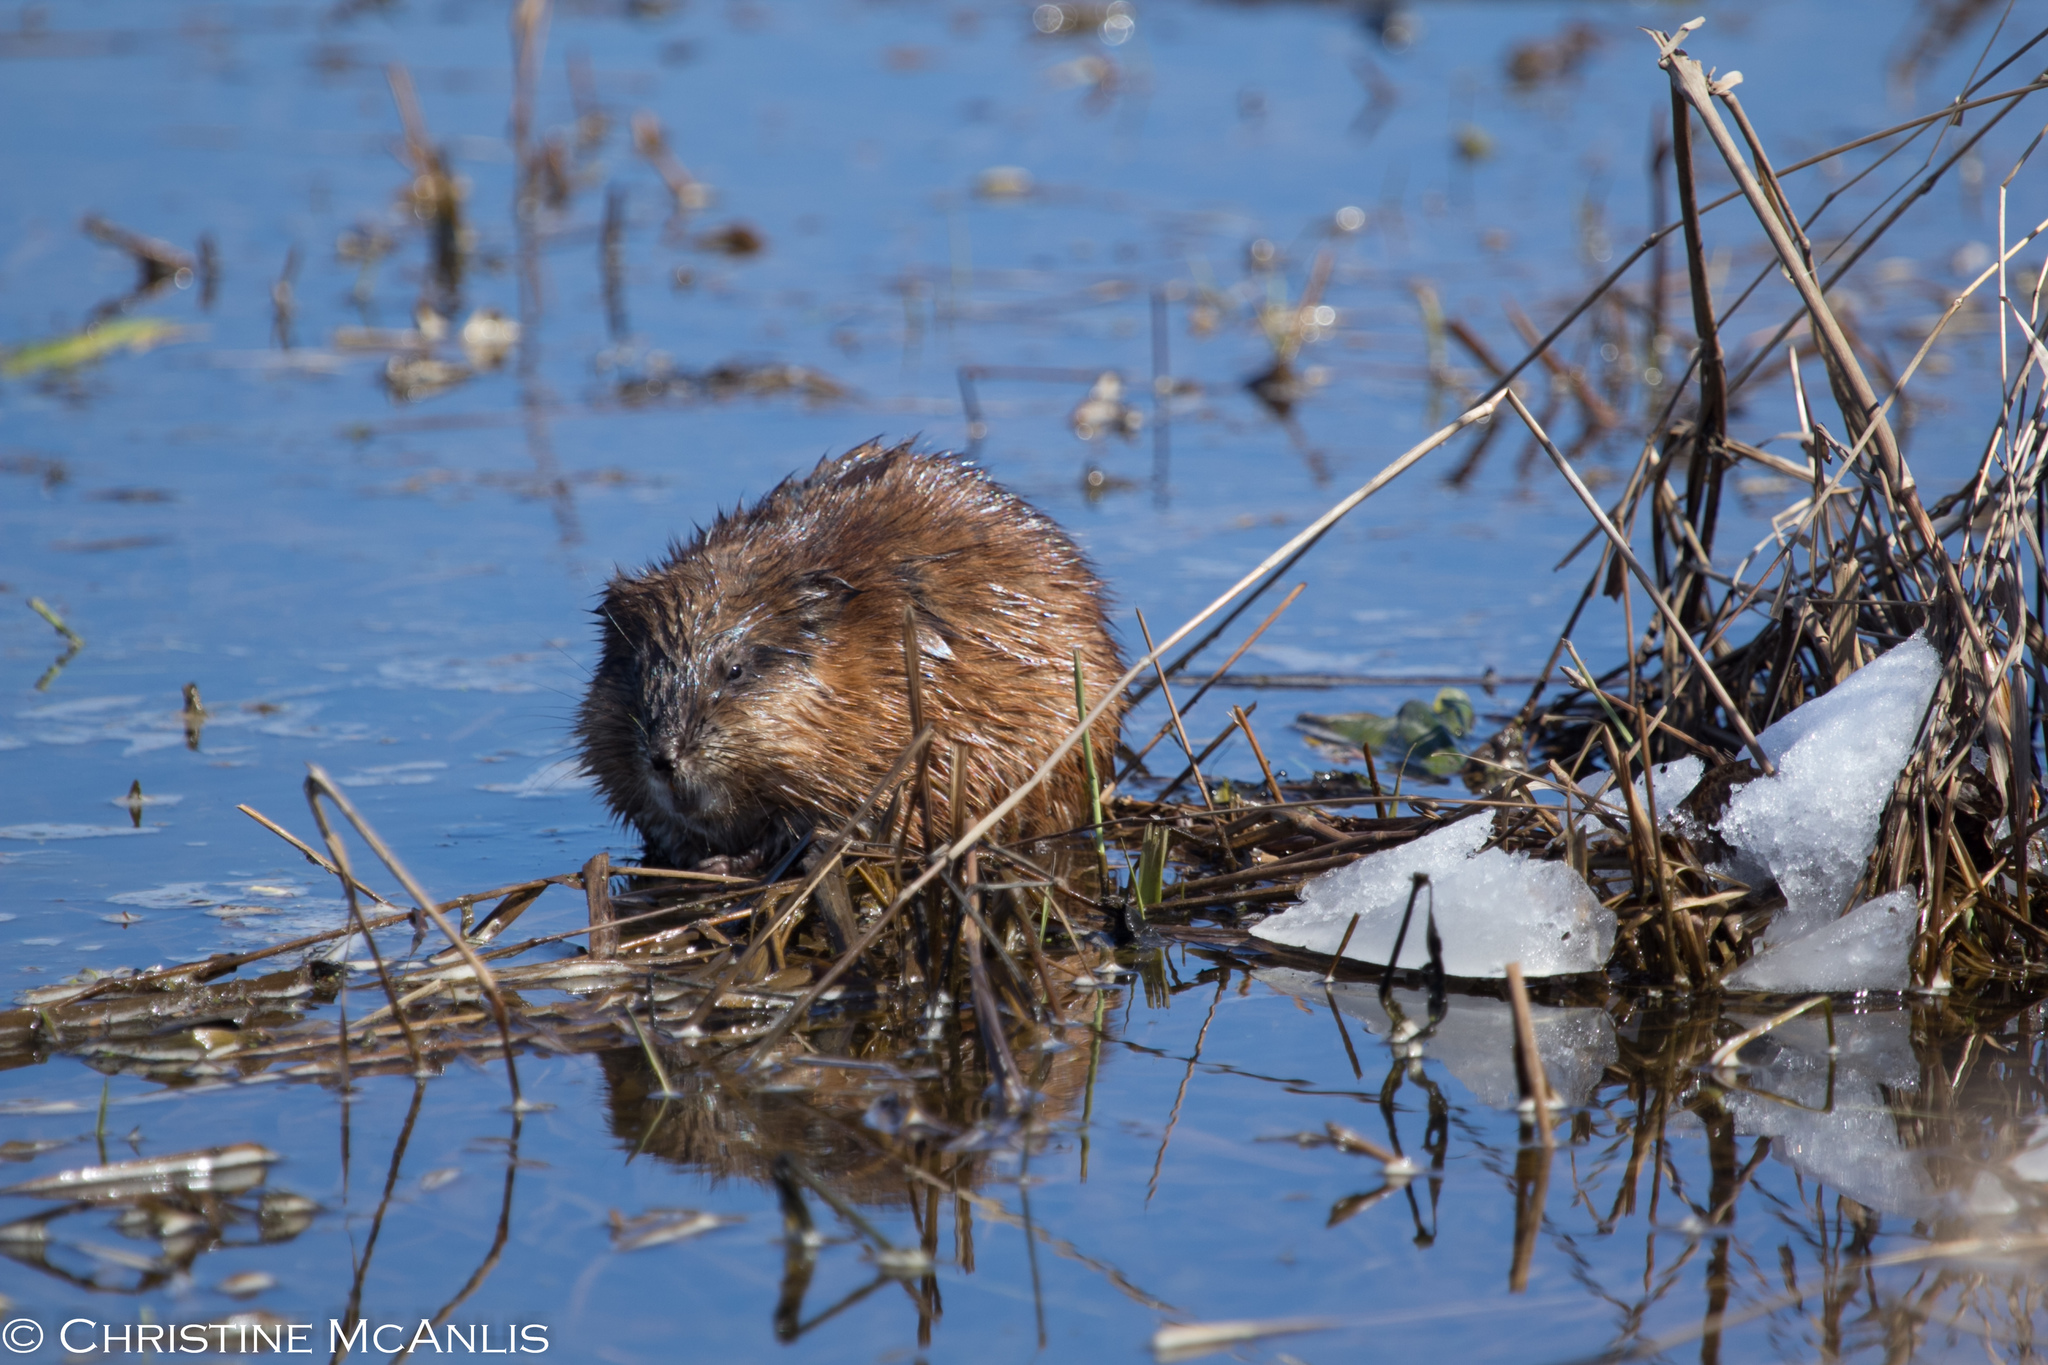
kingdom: Animalia
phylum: Chordata
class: Mammalia
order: Rodentia
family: Cricetidae
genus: Ondatra
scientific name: Ondatra zibethicus
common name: Muskrat
